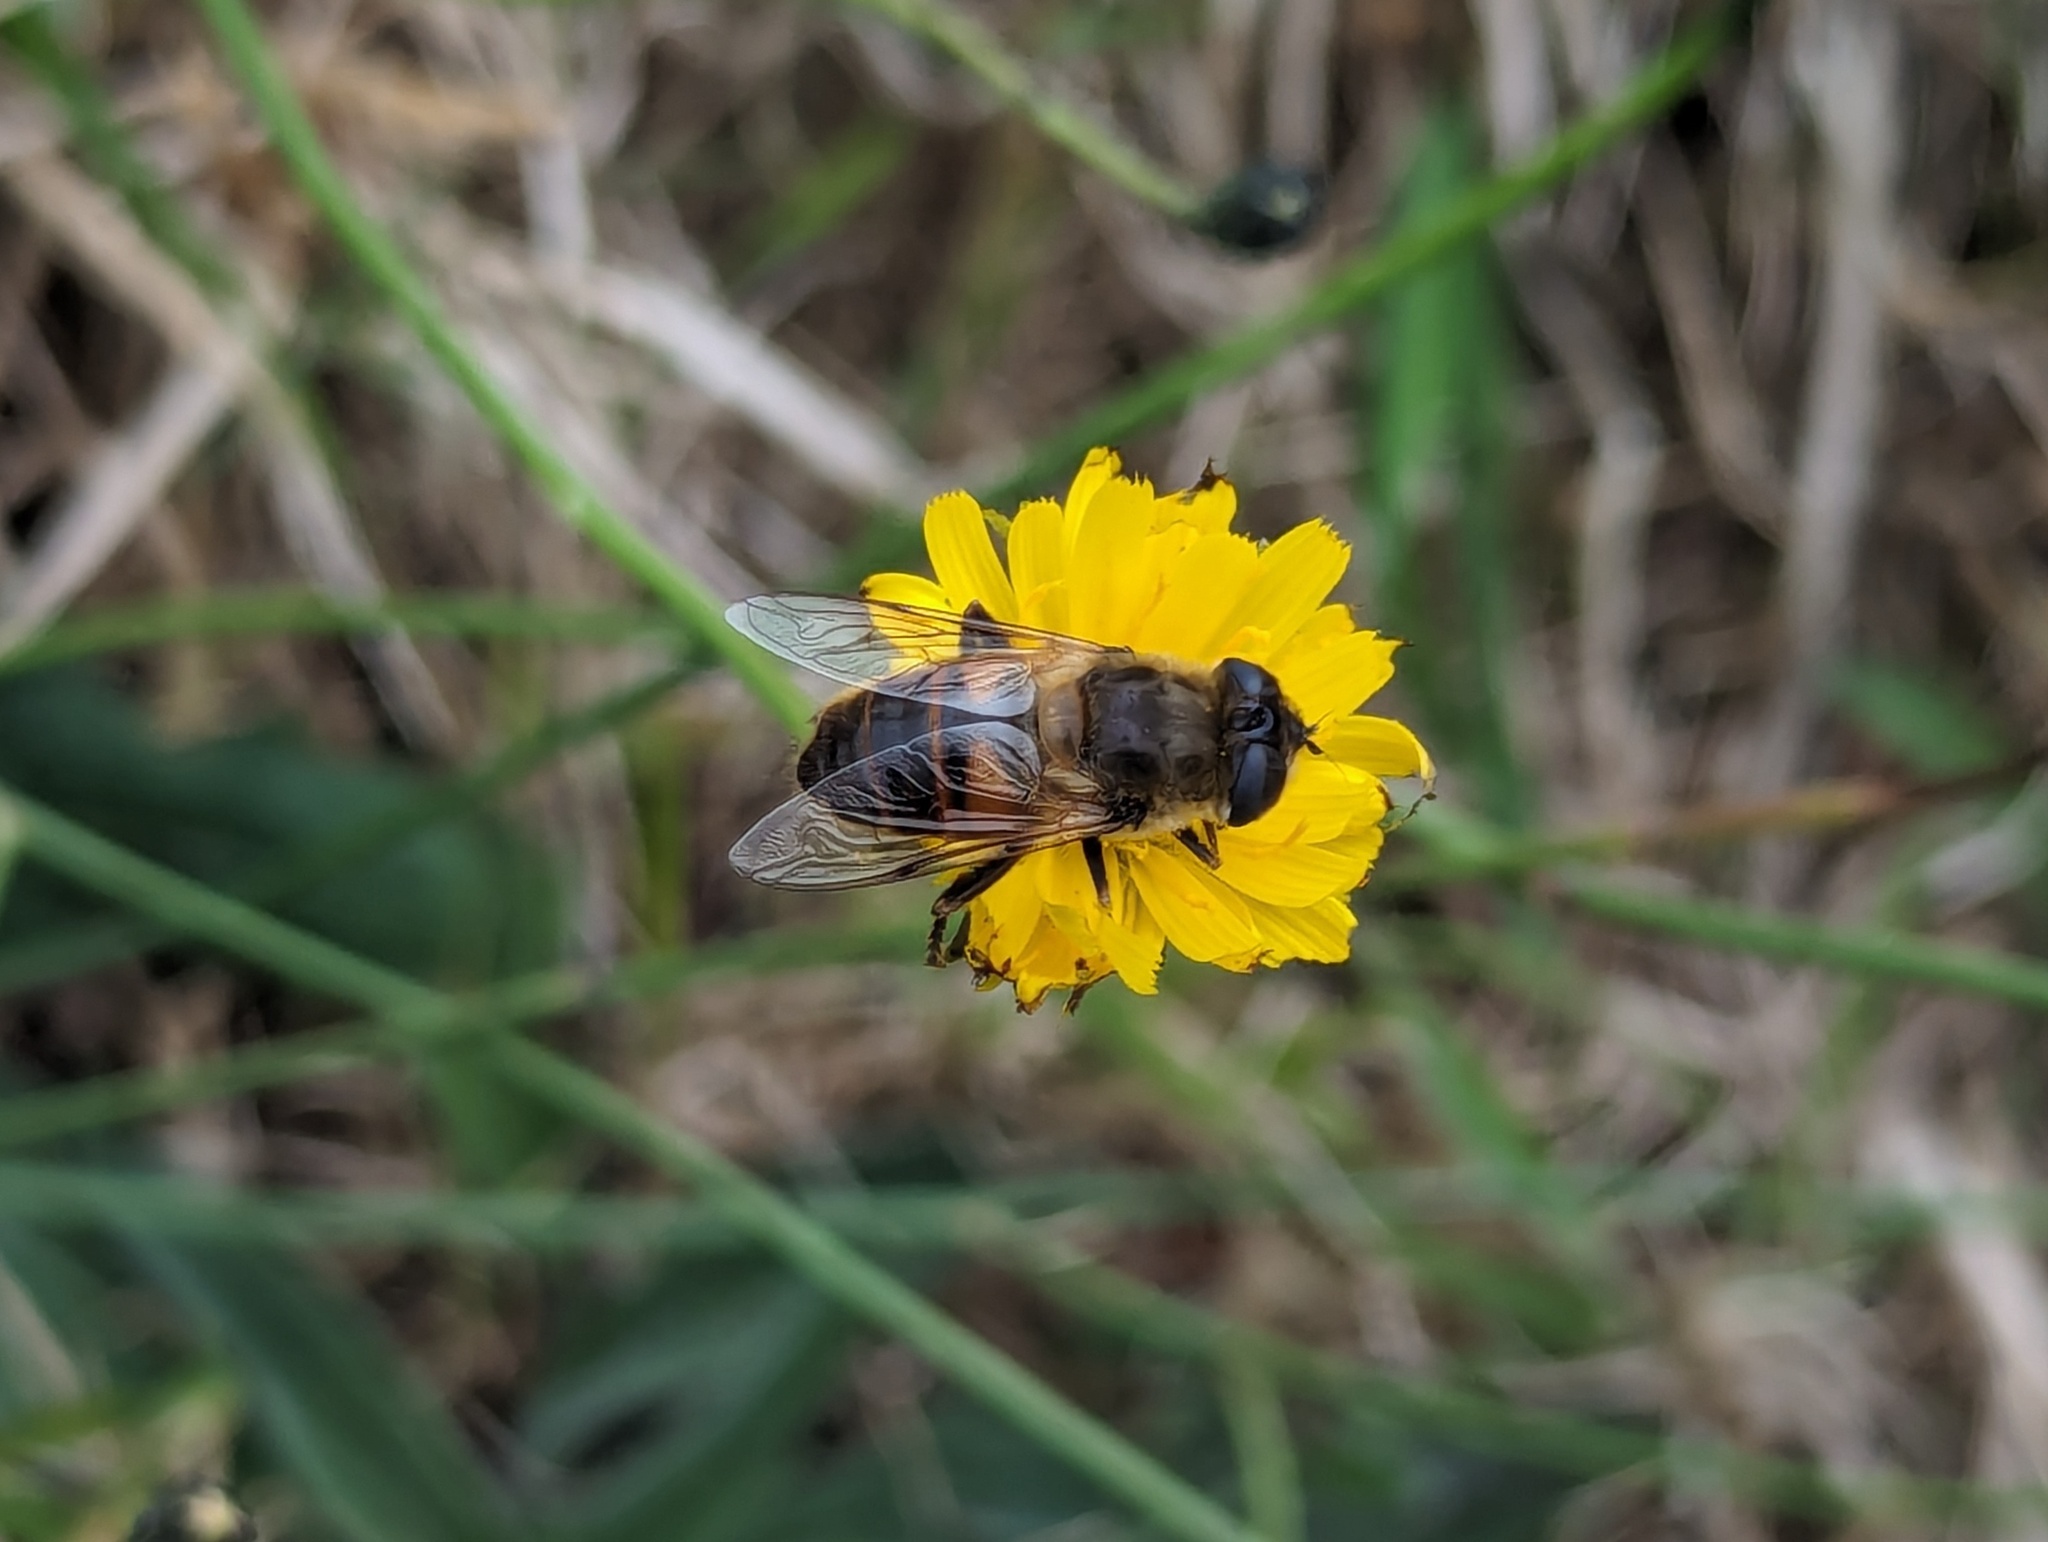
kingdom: Animalia
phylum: Arthropoda
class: Insecta
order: Diptera
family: Syrphidae
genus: Eristalis
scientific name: Eristalis tenax
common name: Drone fly
